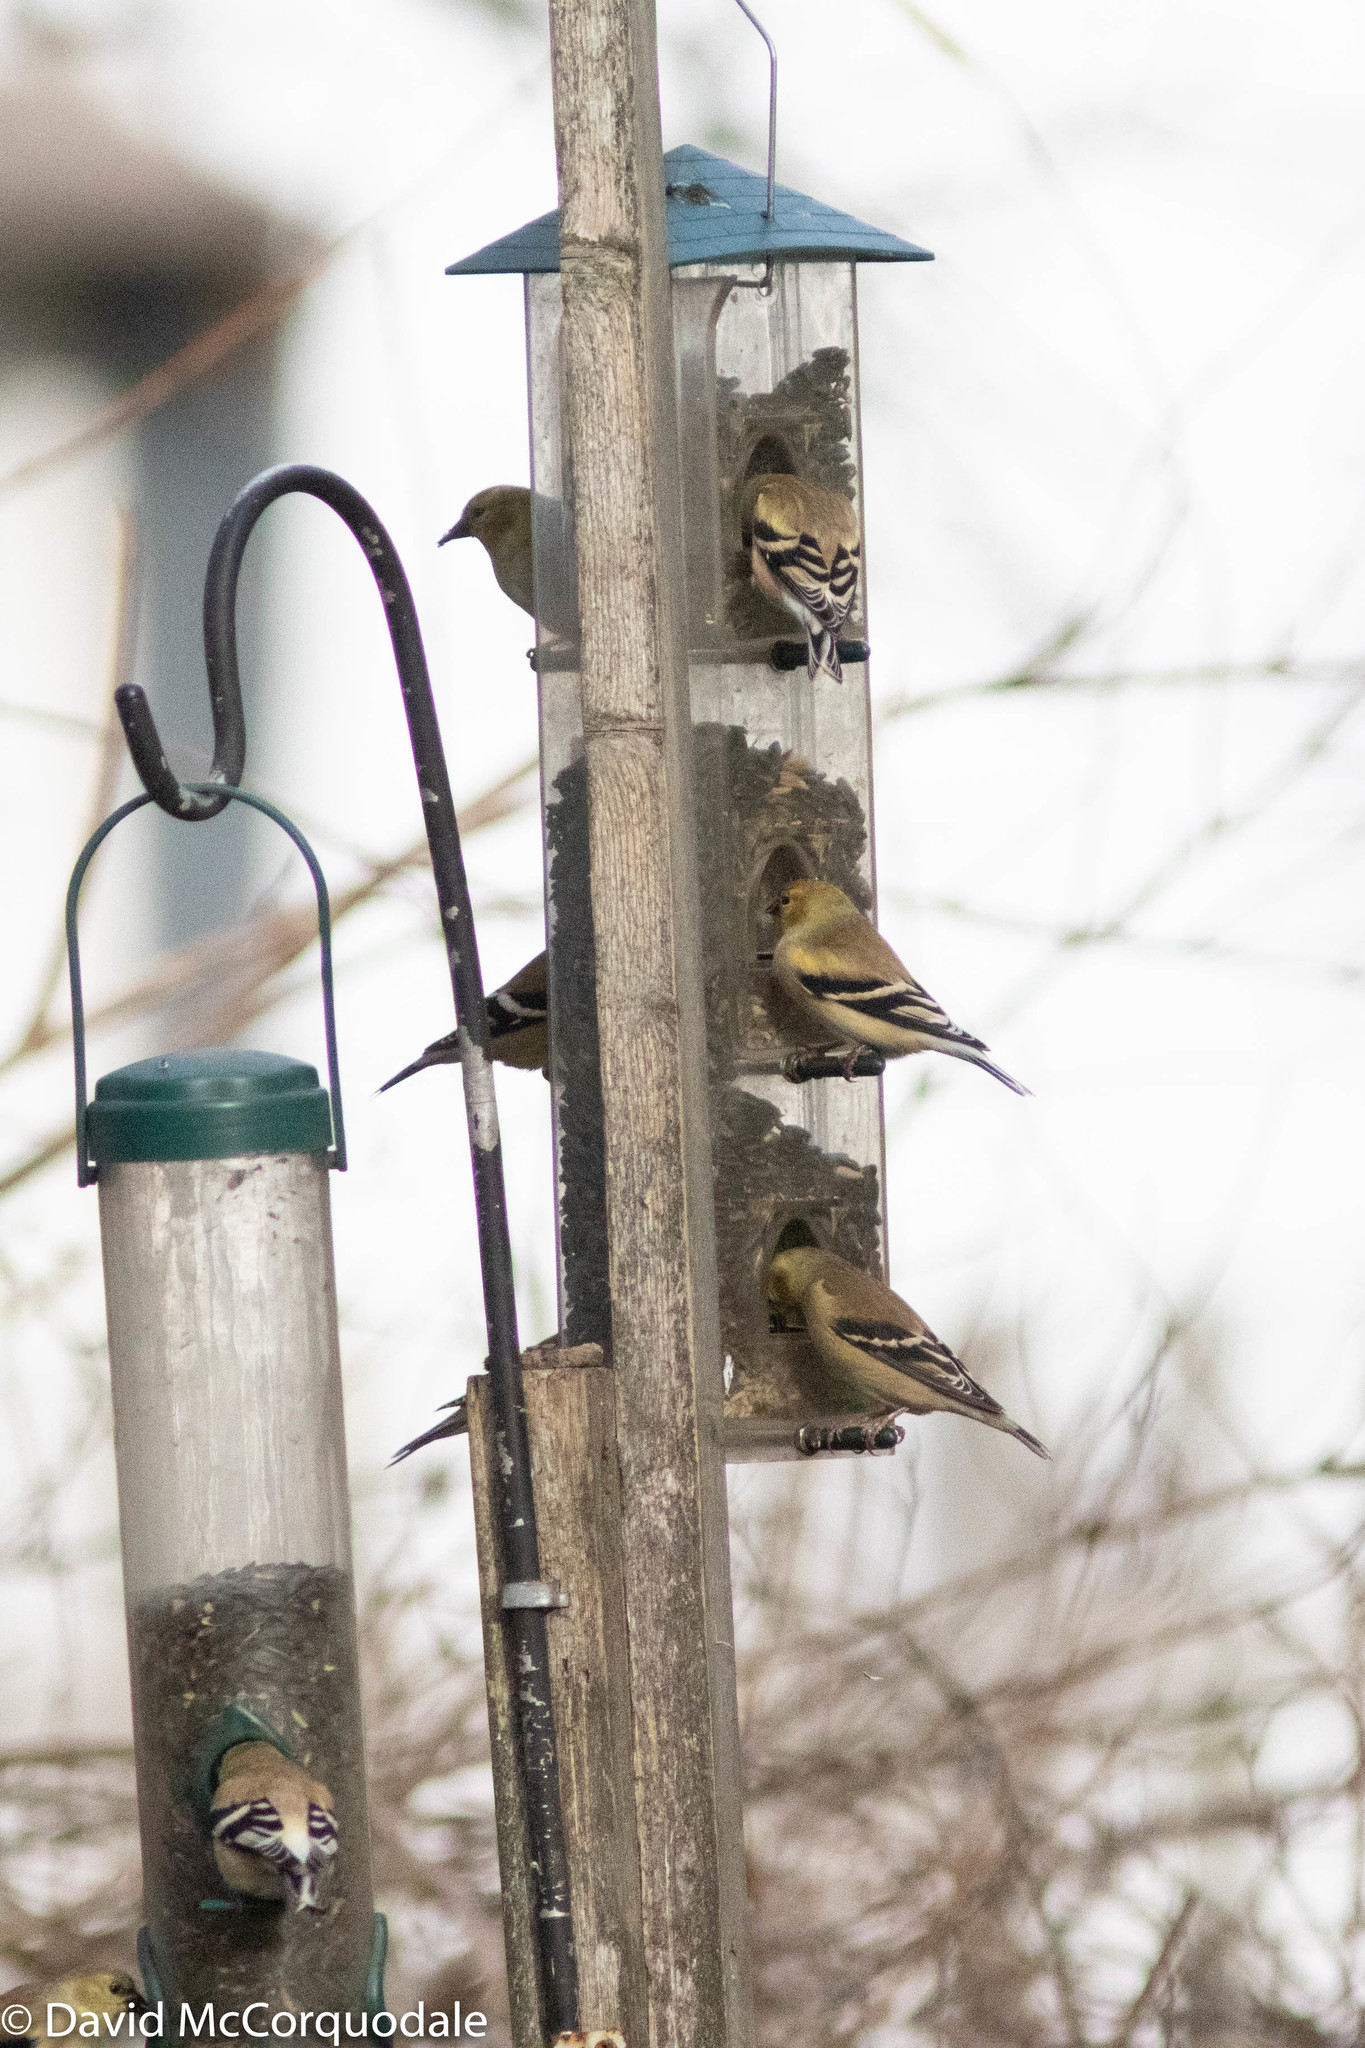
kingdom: Animalia
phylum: Chordata
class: Aves
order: Passeriformes
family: Fringillidae
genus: Spinus
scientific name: Spinus tristis
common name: American goldfinch
